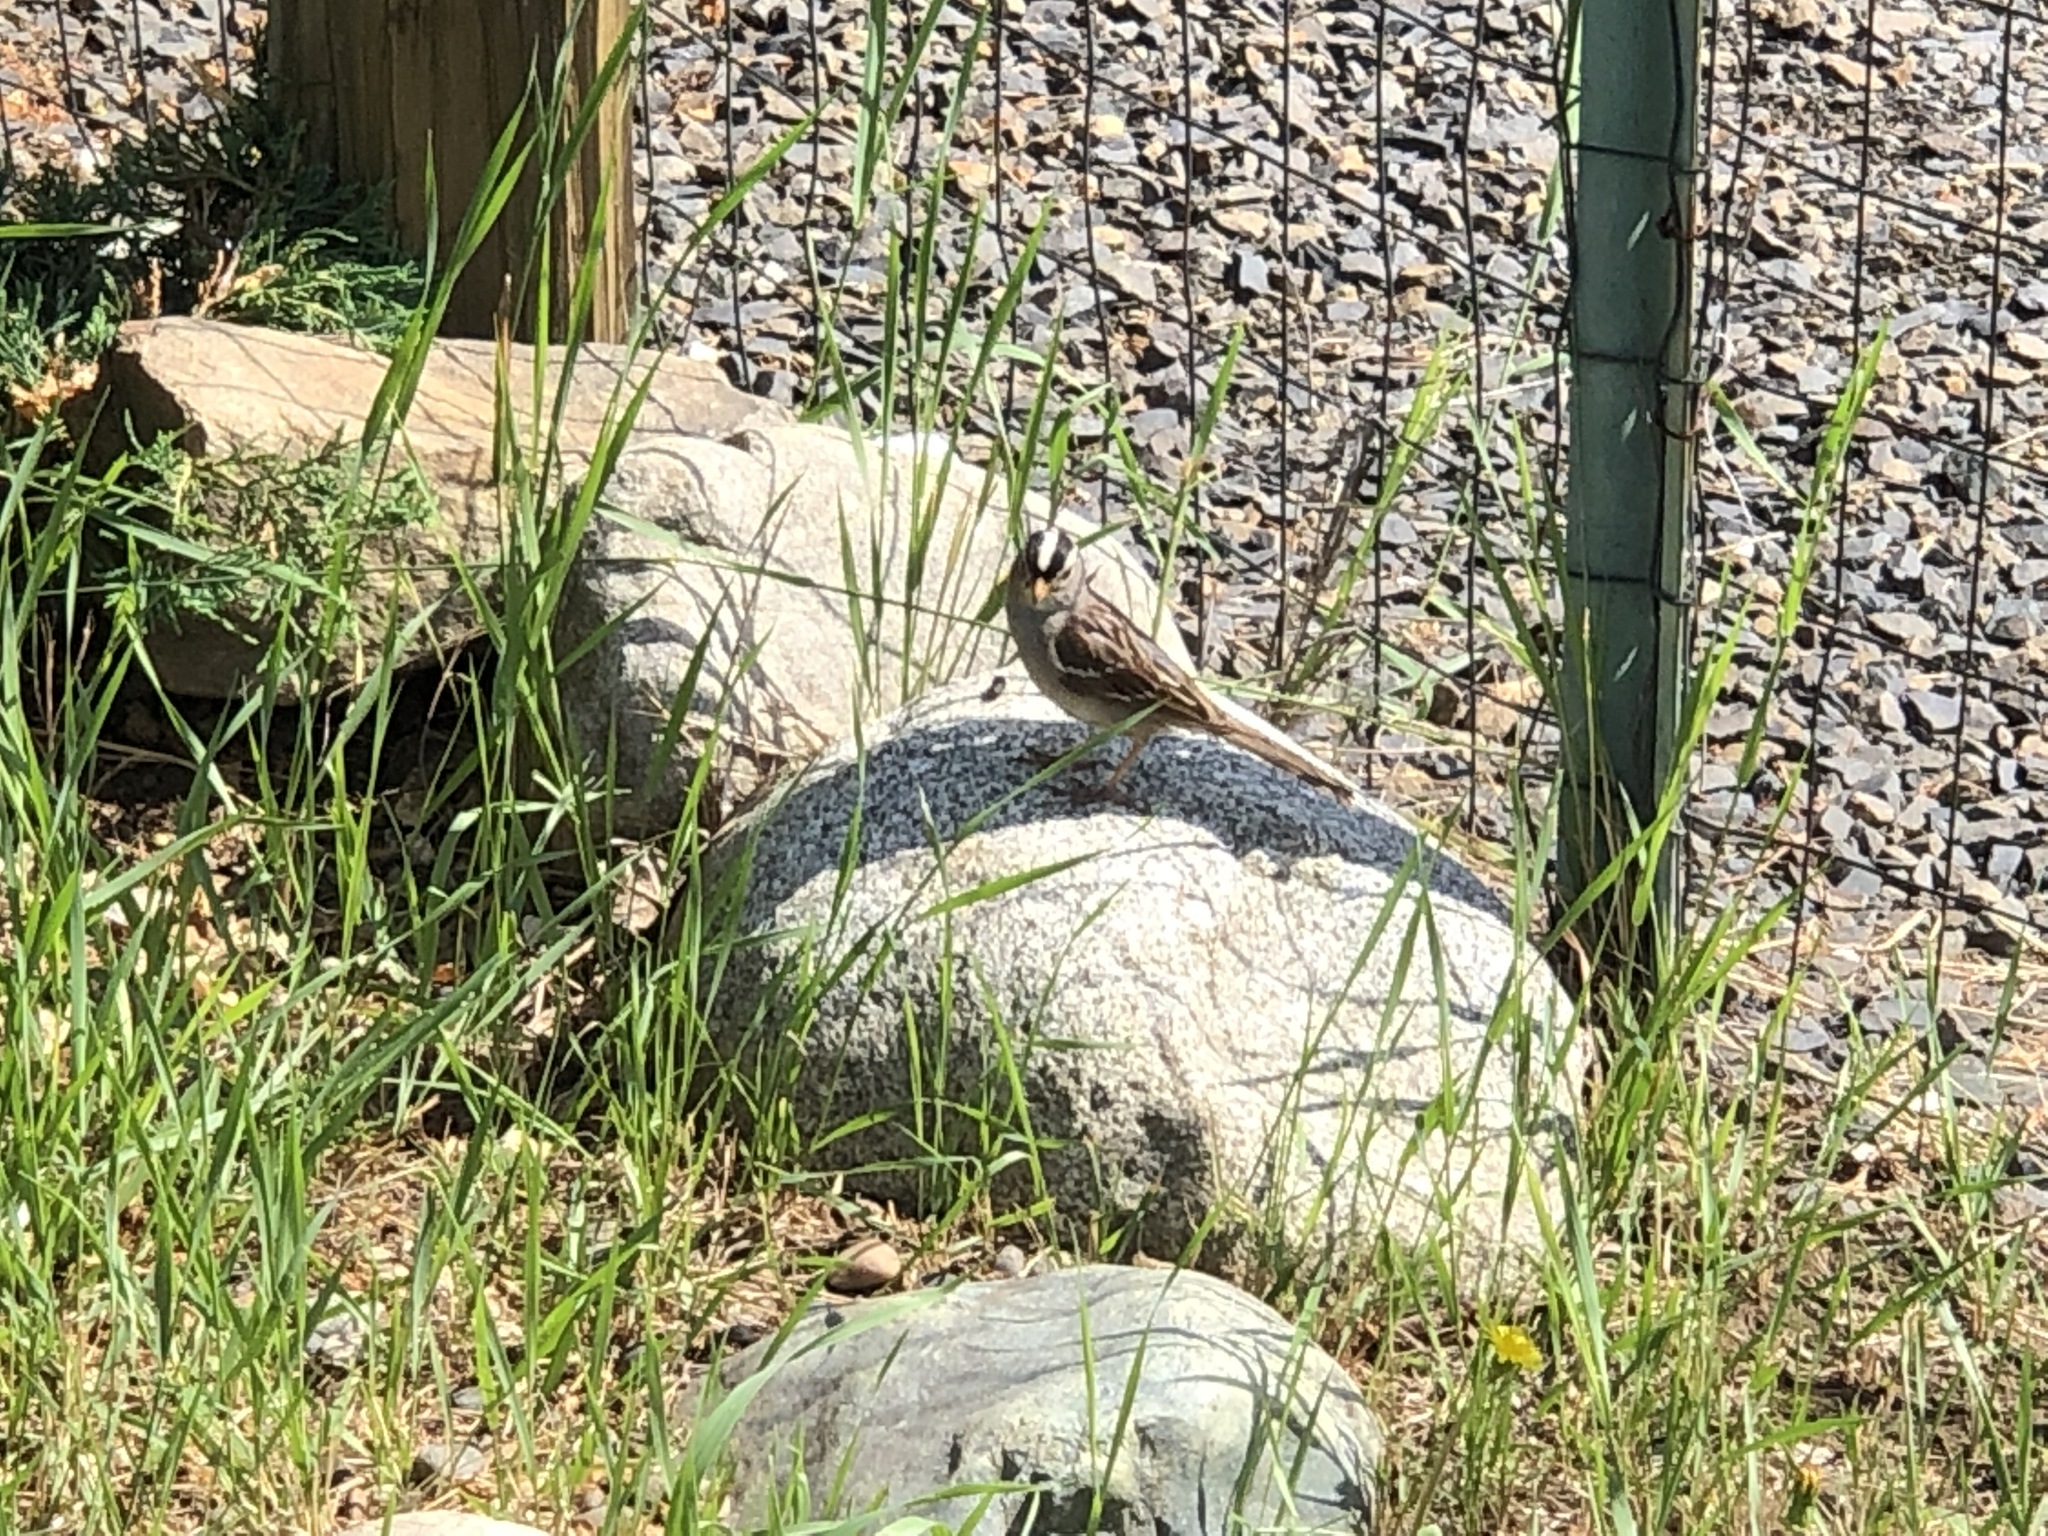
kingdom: Animalia
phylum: Chordata
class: Aves
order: Passeriformes
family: Passerellidae
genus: Zonotrichia
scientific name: Zonotrichia leucophrys
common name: White-crowned sparrow
